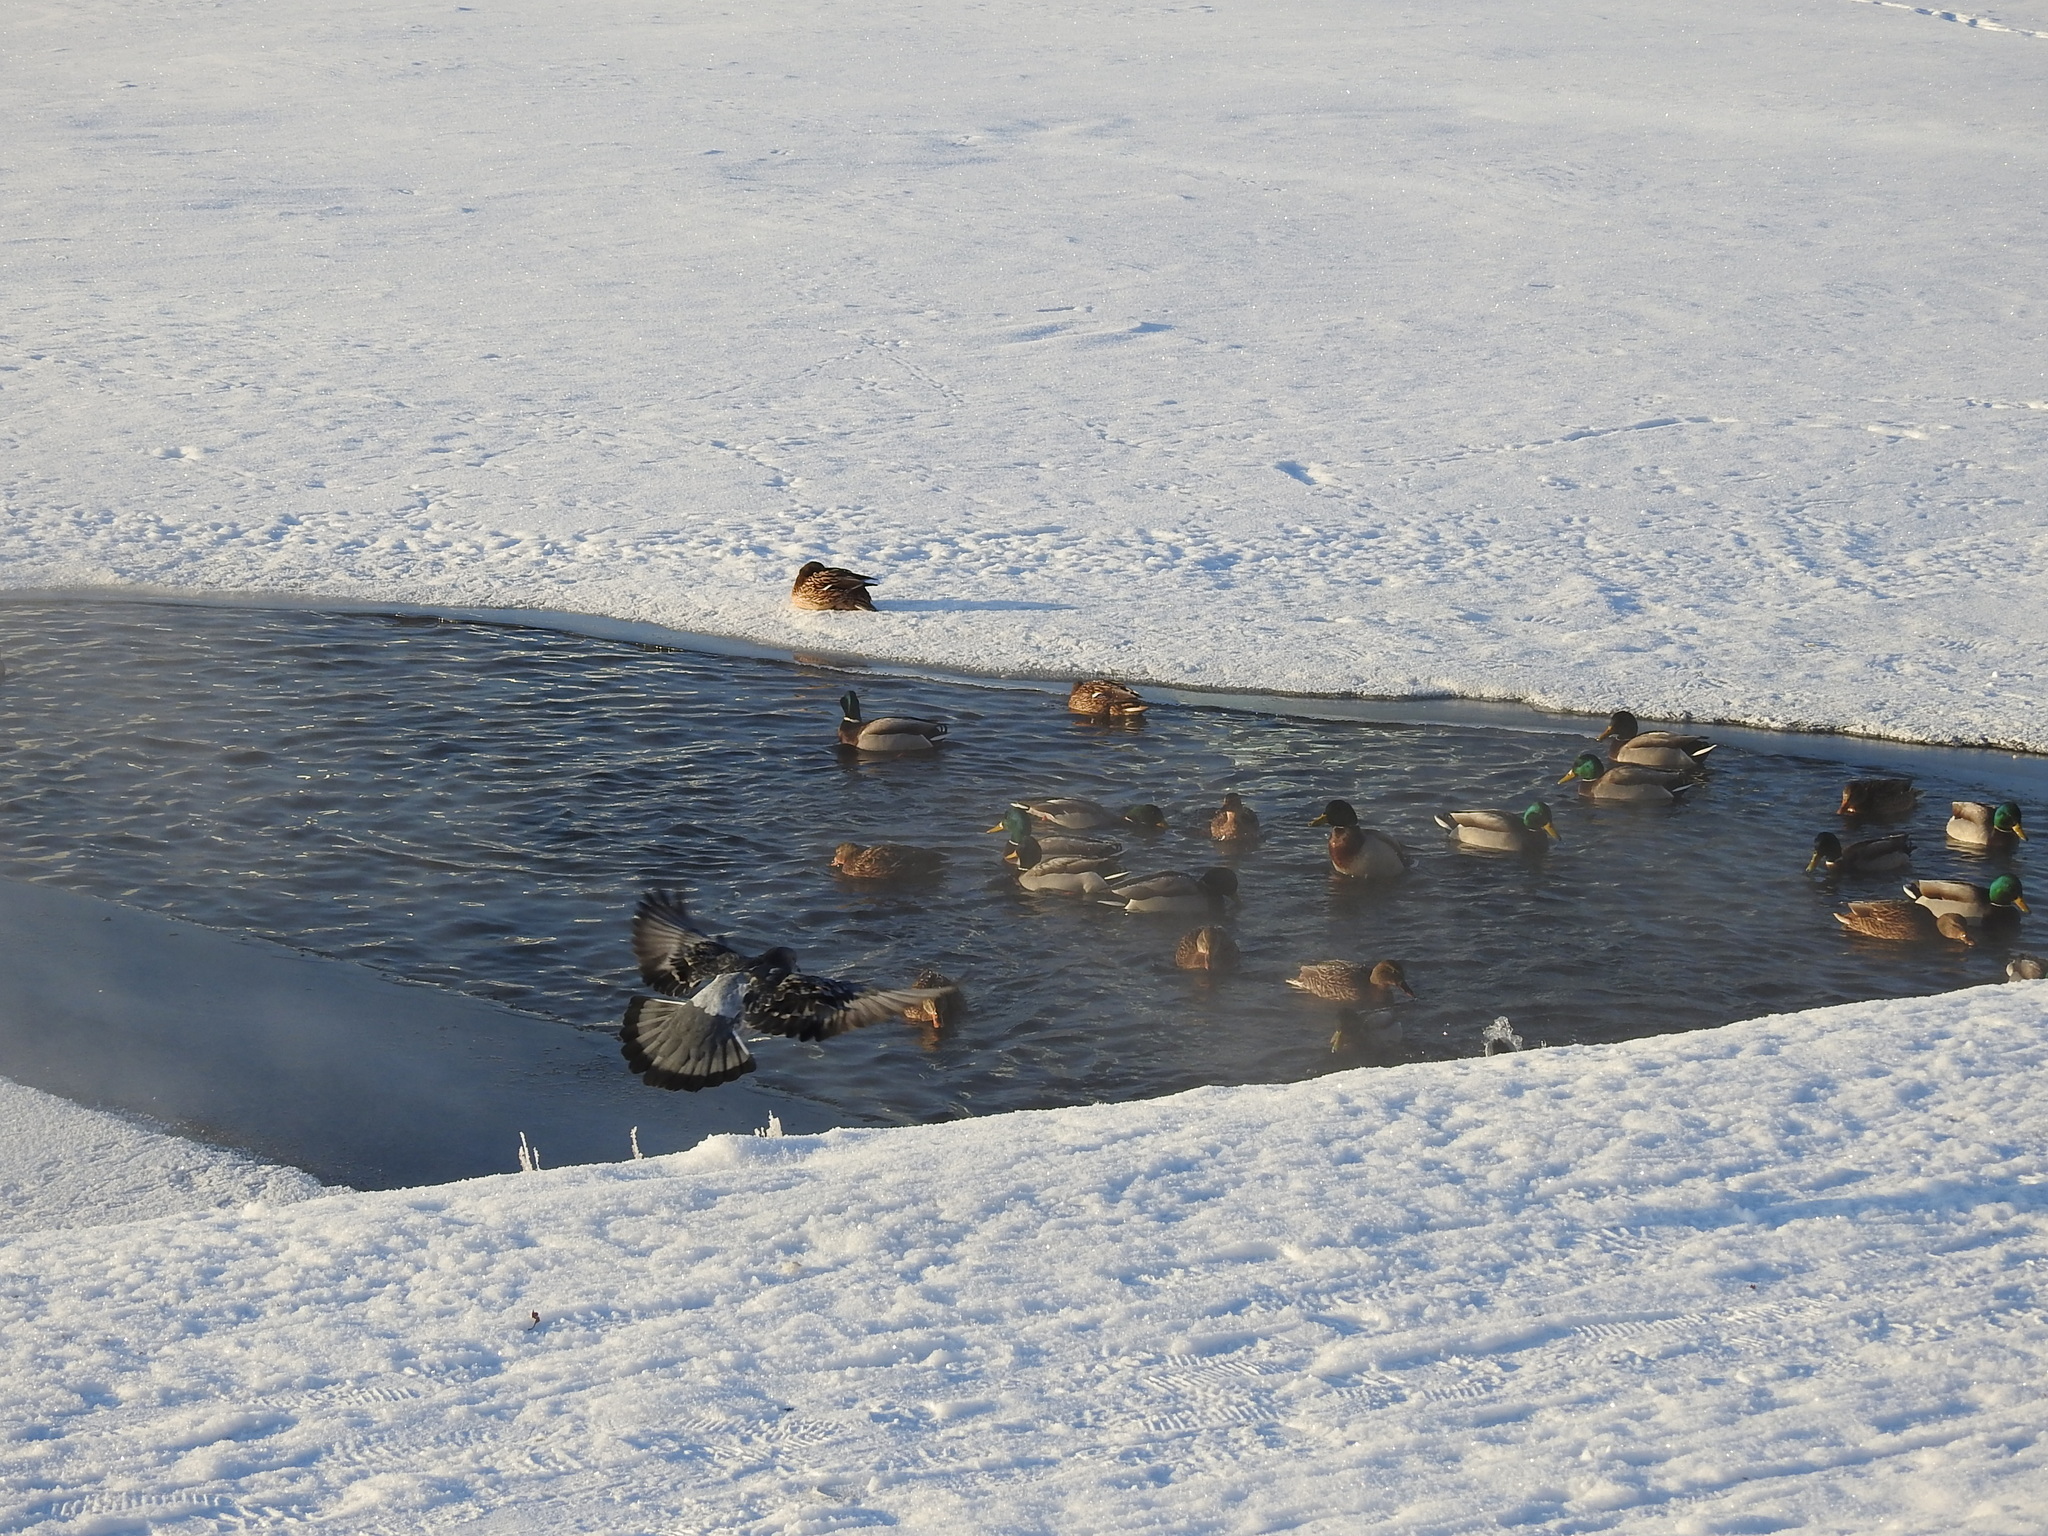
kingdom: Animalia
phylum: Chordata
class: Aves
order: Anseriformes
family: Anatidae
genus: Anas
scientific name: Anas platyrhynchos
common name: Mallard
